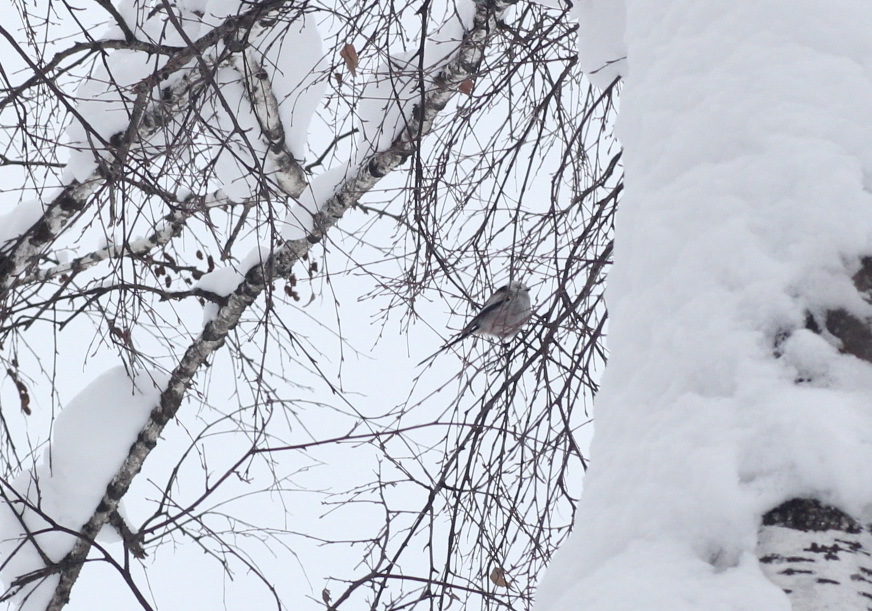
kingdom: Animalia
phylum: Chordata
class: Aves
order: Passeriformes
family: Aegithalidae
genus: Aegithalos
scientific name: Aegithalos caudatus
